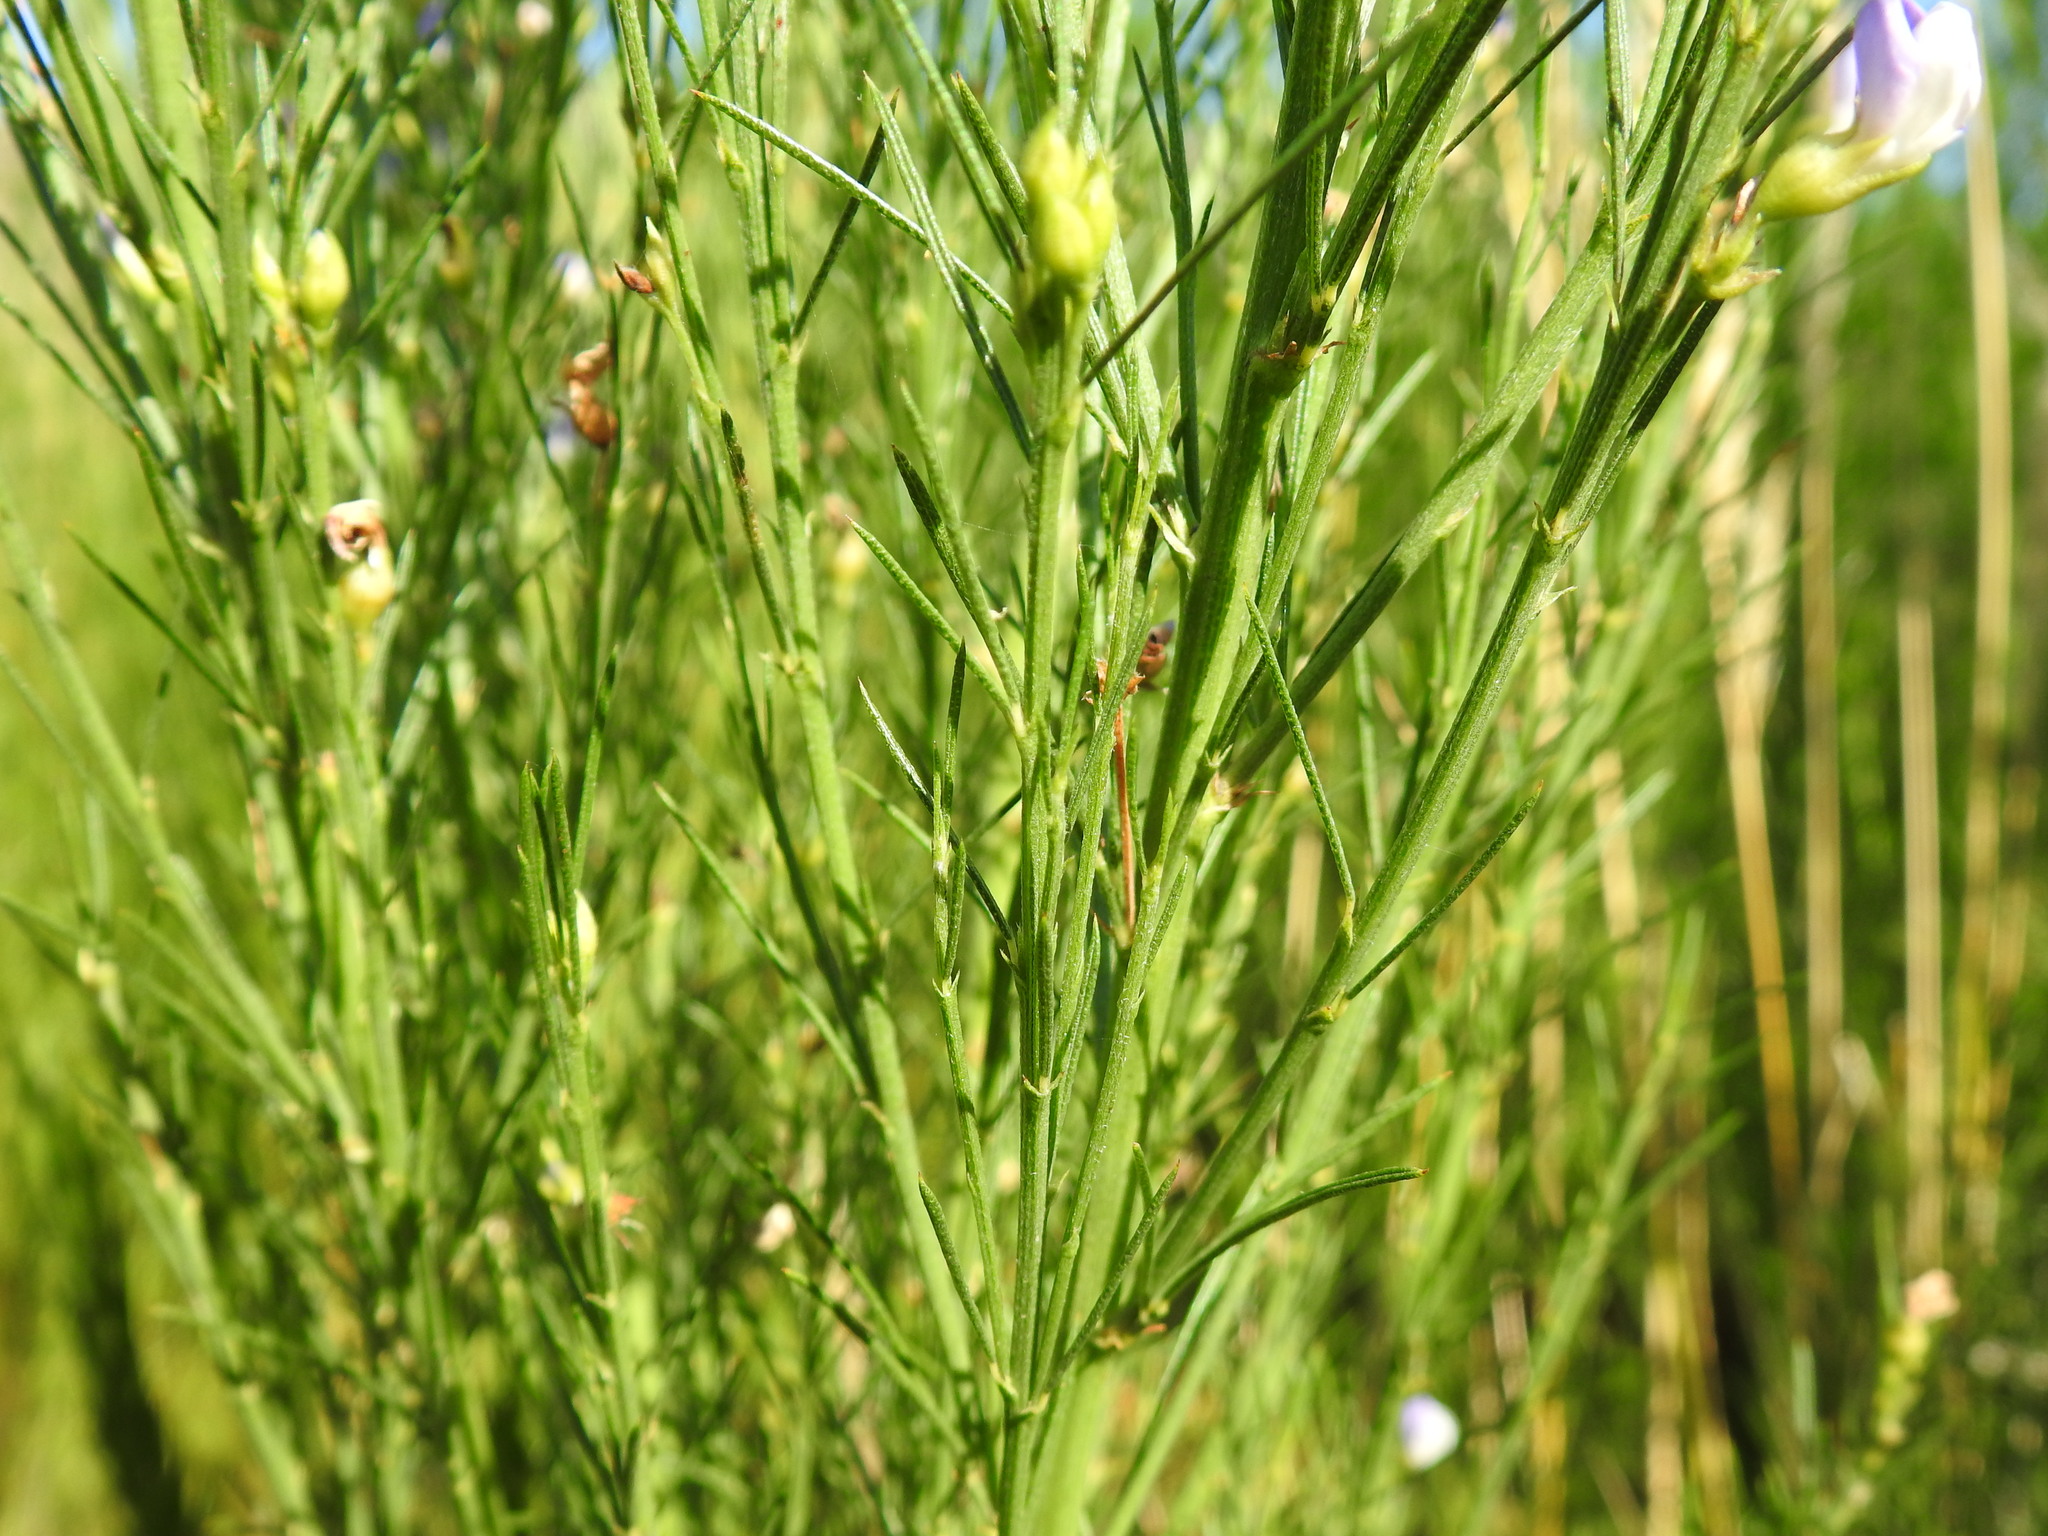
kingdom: Plantae
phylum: Tracheophyta
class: Magnoliopsida
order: Fabales
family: Fabaceae
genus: Psoralea
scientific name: Psoralea filifolia
